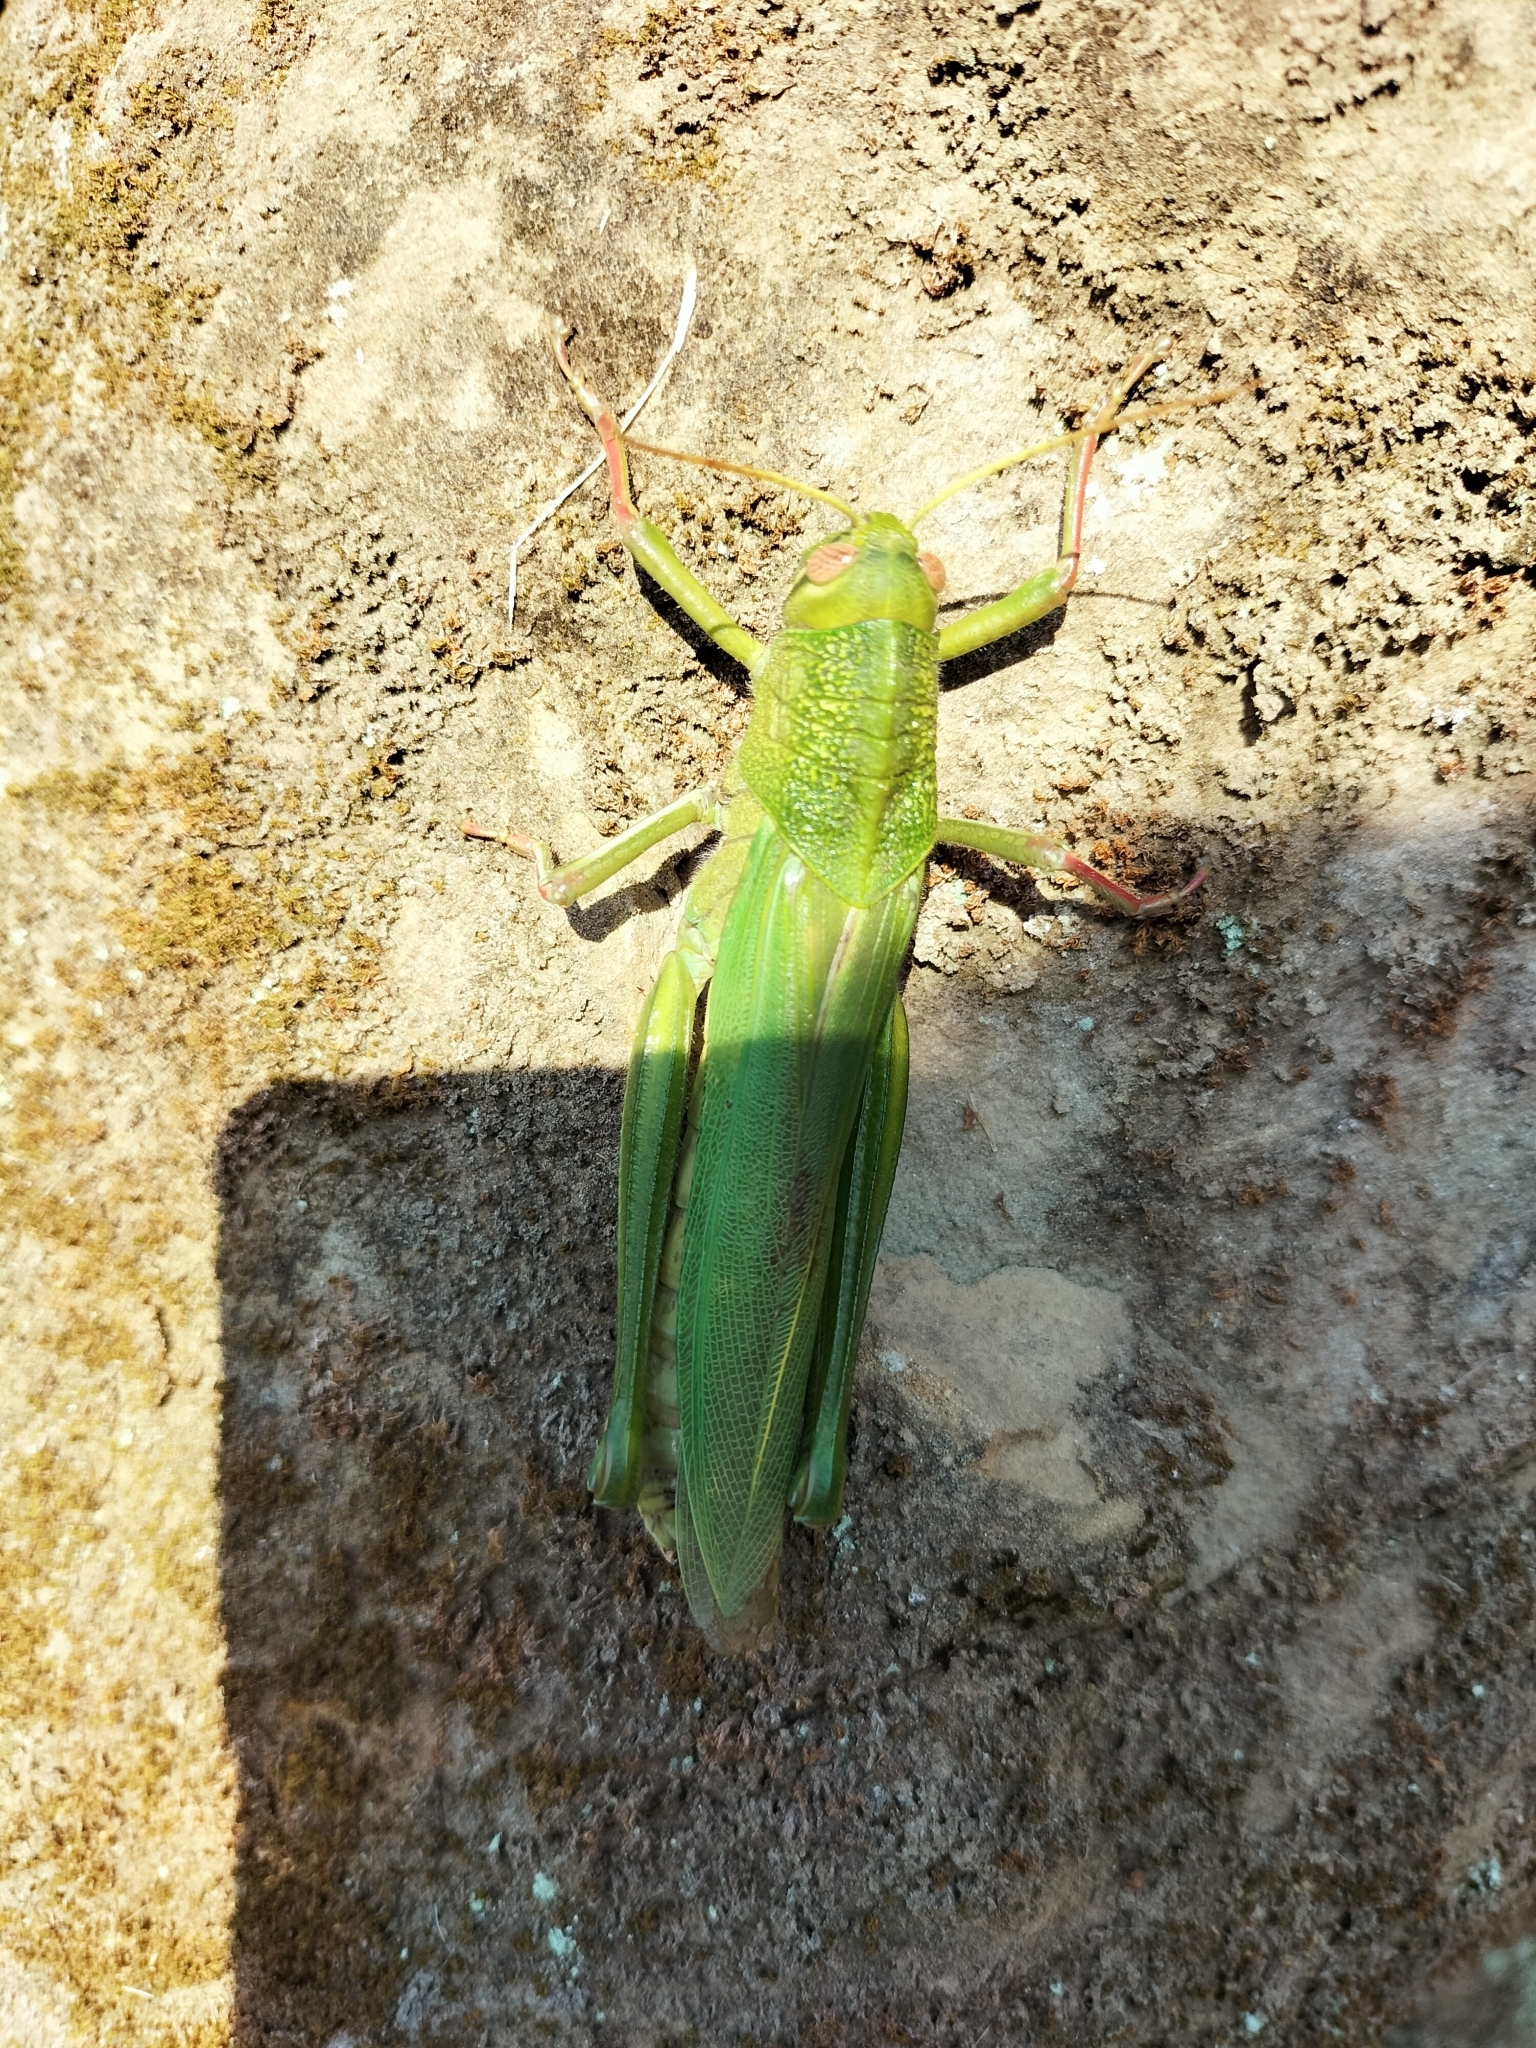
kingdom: Animalia
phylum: Arthropoda
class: Insecta
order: Orthoptera
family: Acrididae
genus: Chondracris
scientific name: Chondracris rosea
